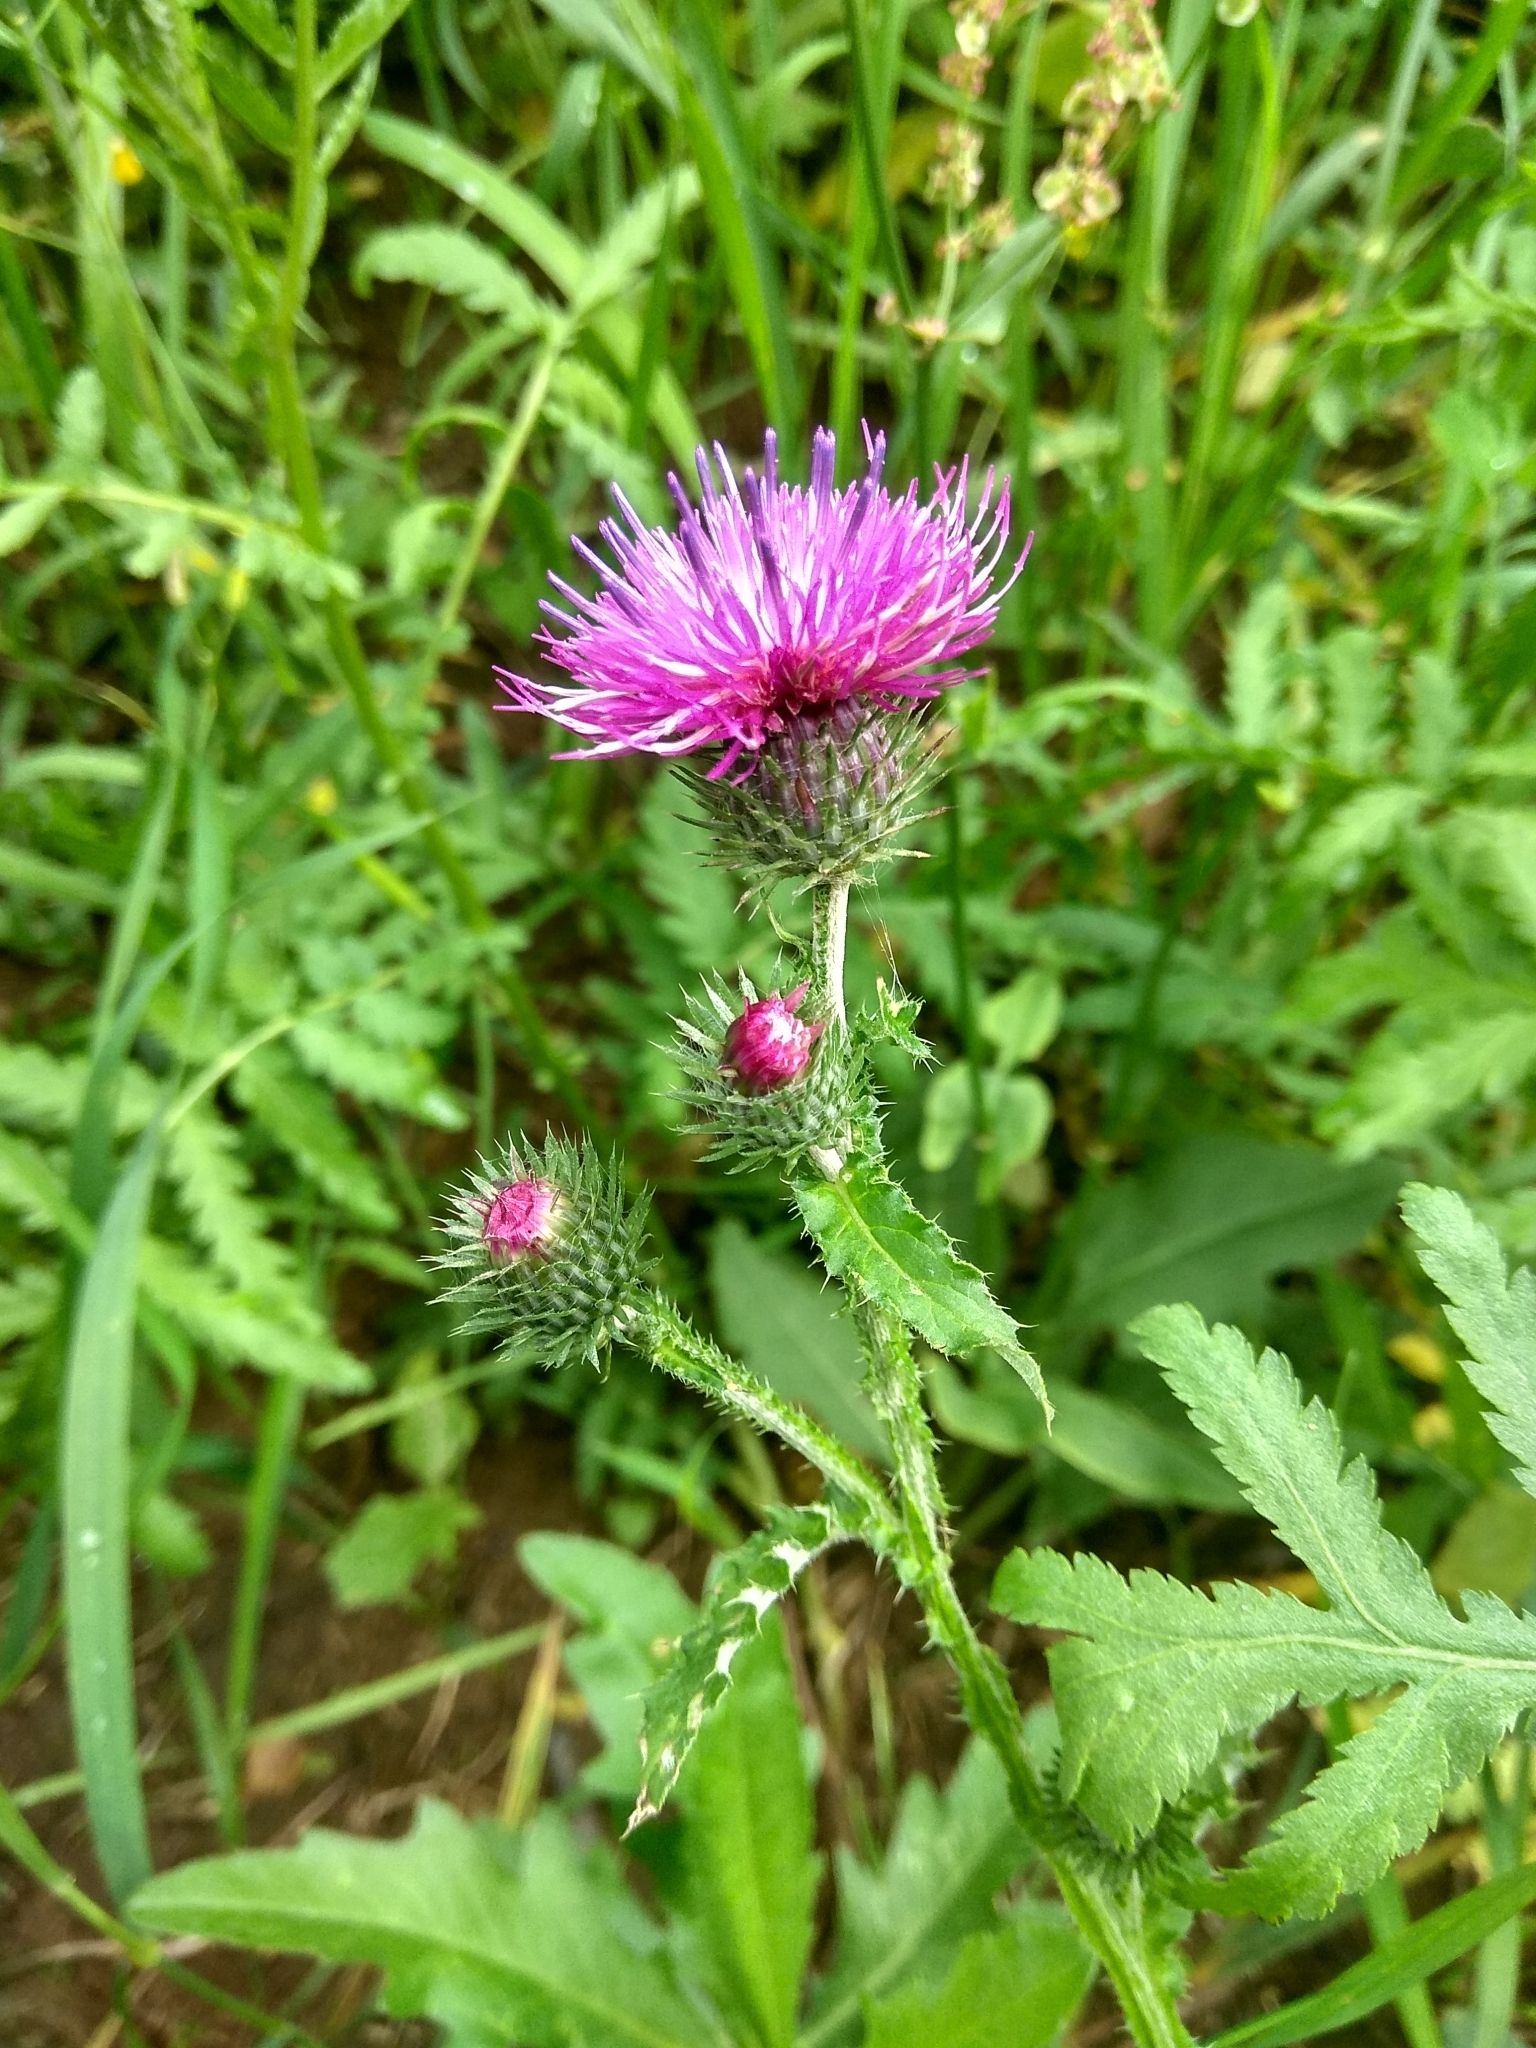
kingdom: Plantae
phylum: Tracheophyta
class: Magnoliopsida
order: Asterales
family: Asteraceae
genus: Carduus
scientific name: Carduus crispus
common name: Welted thistle
